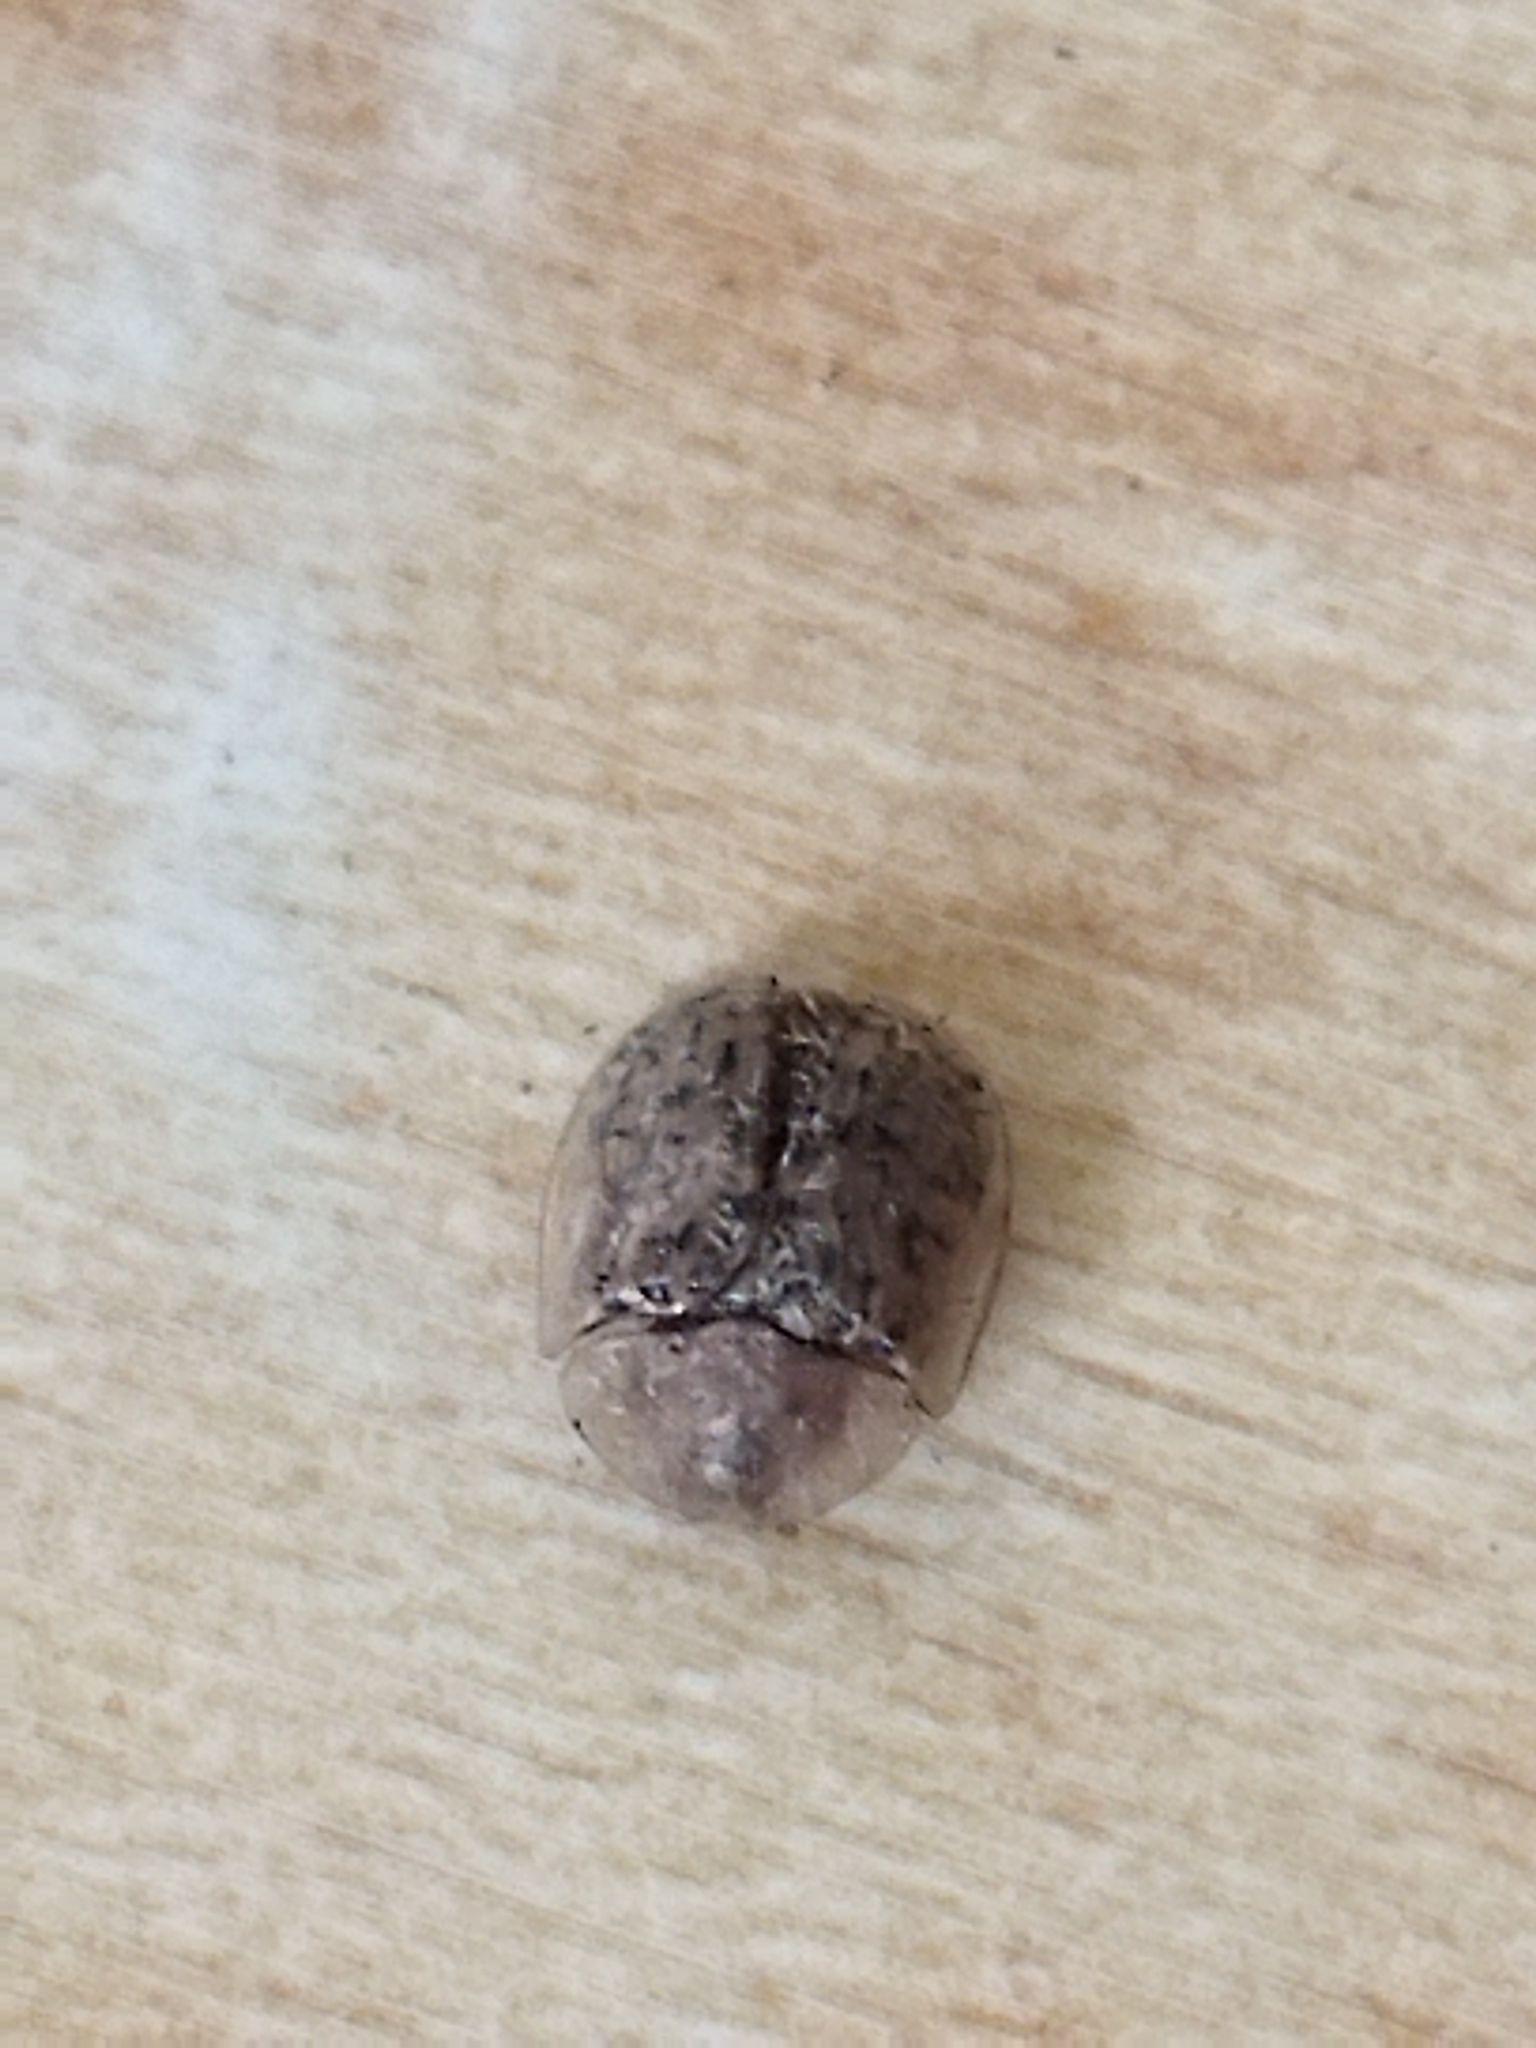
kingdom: Animalia
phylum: Arthropoda
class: Insecta
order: Coleoptera
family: Chrysomelidae
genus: Cassida
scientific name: Cassida nebulosa
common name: Beet tortoise beetle
